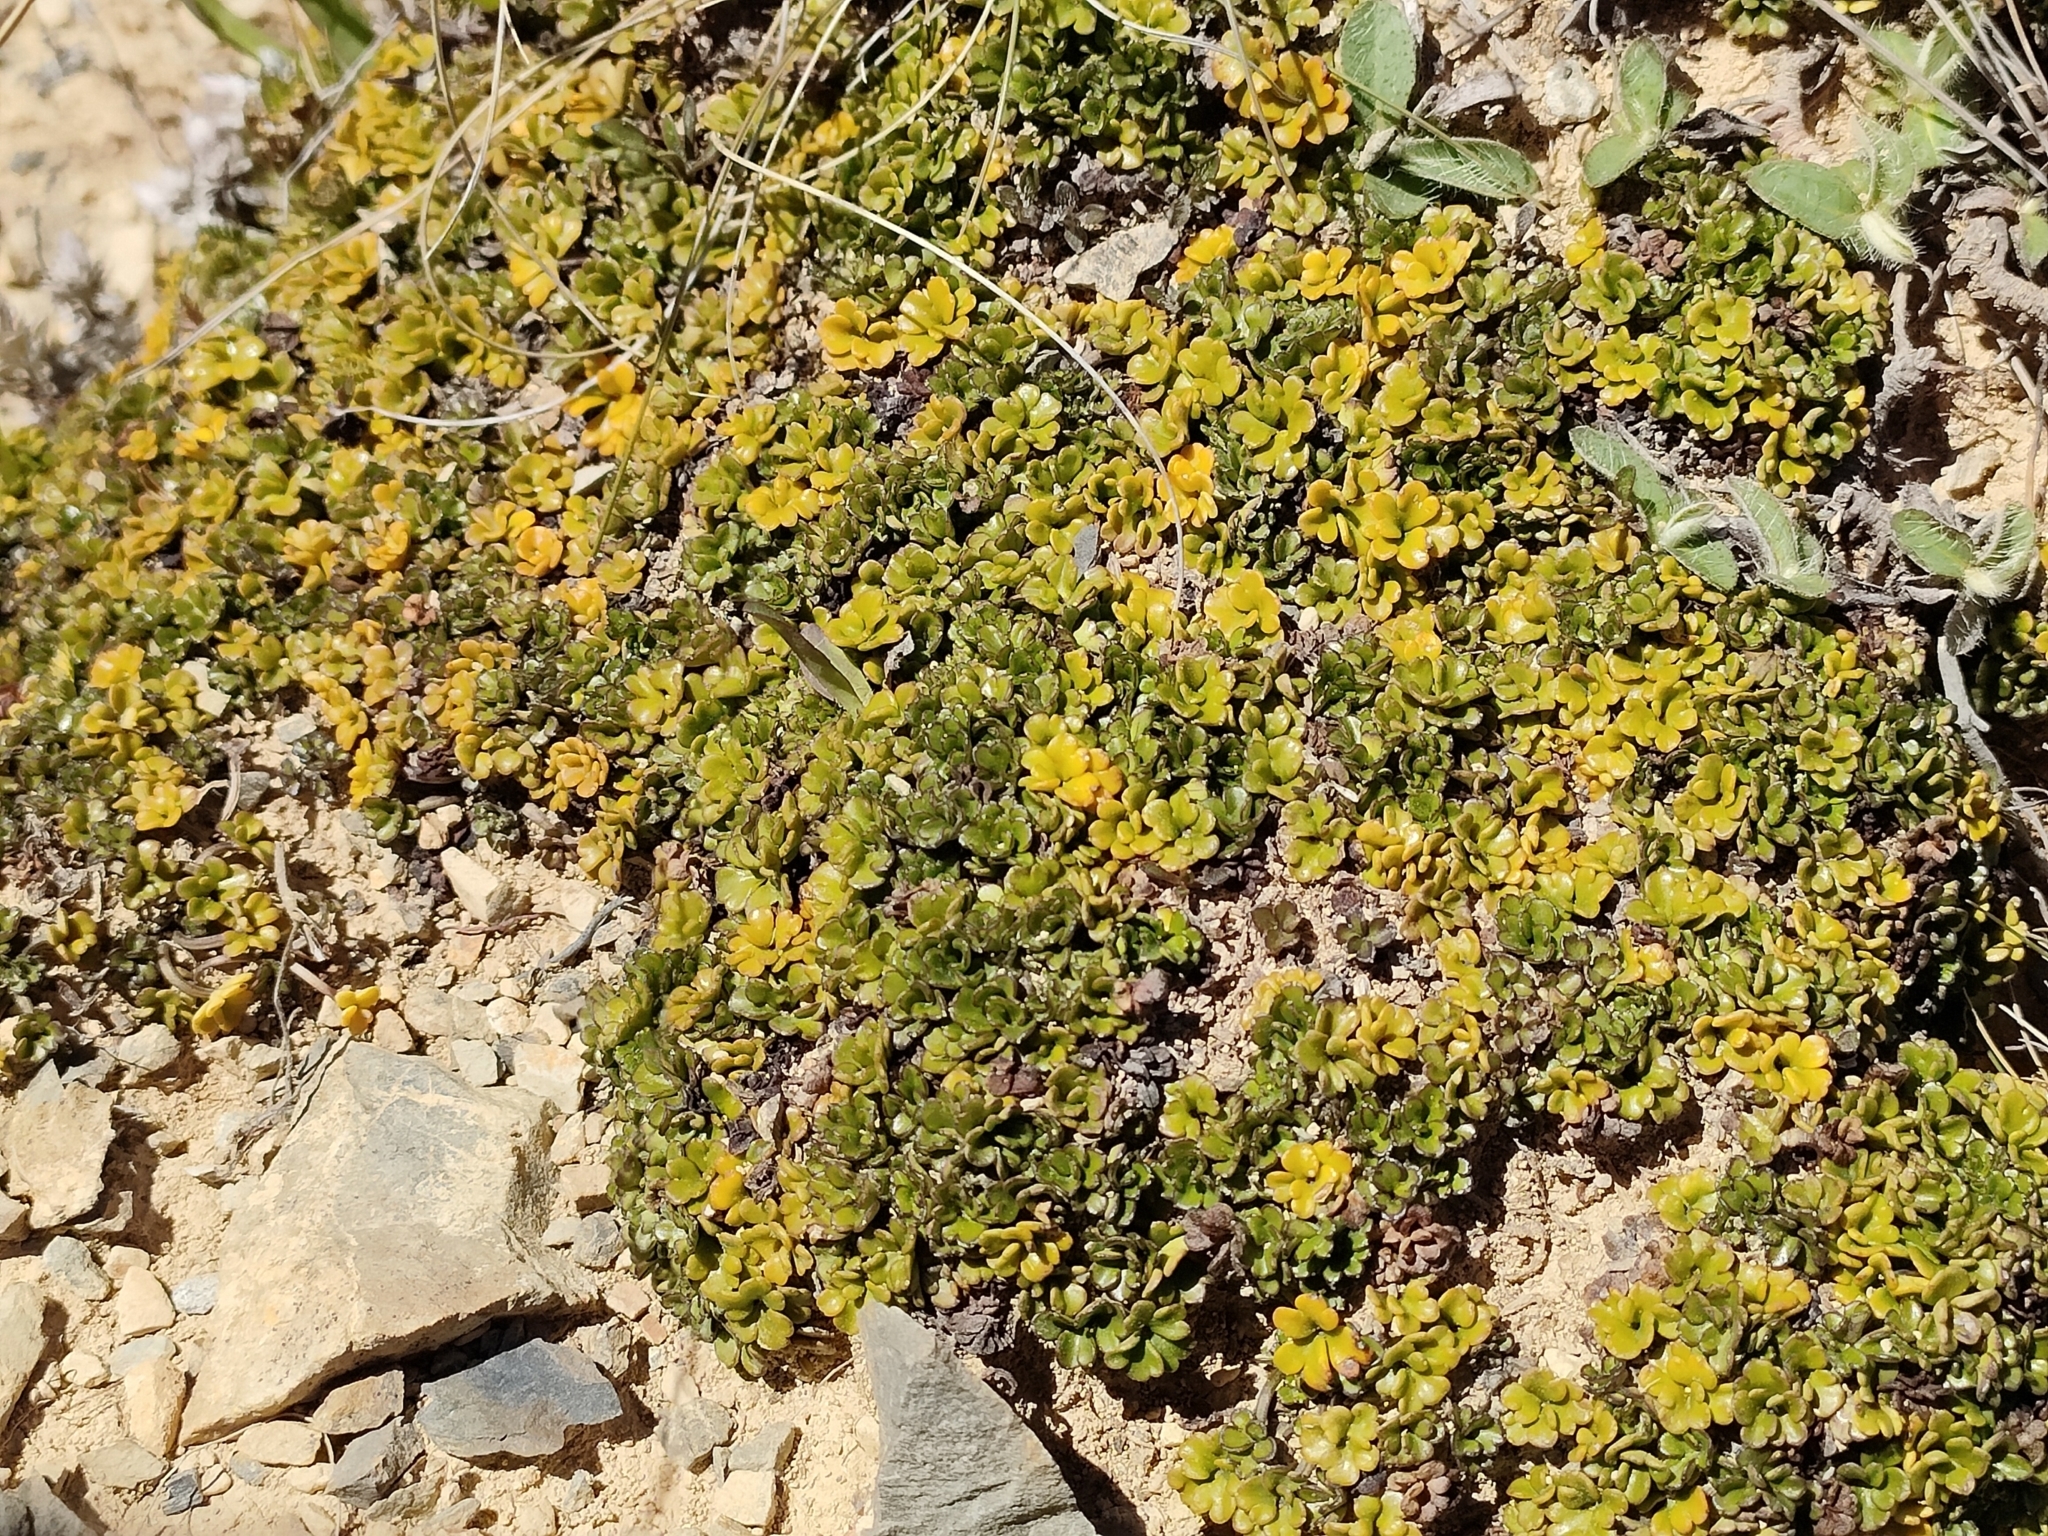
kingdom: Plantae
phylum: Tracheophyta
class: Magnoliopsida
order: Apiales
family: Apiaceae
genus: Azorella
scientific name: Azorella hydrocotyloides
